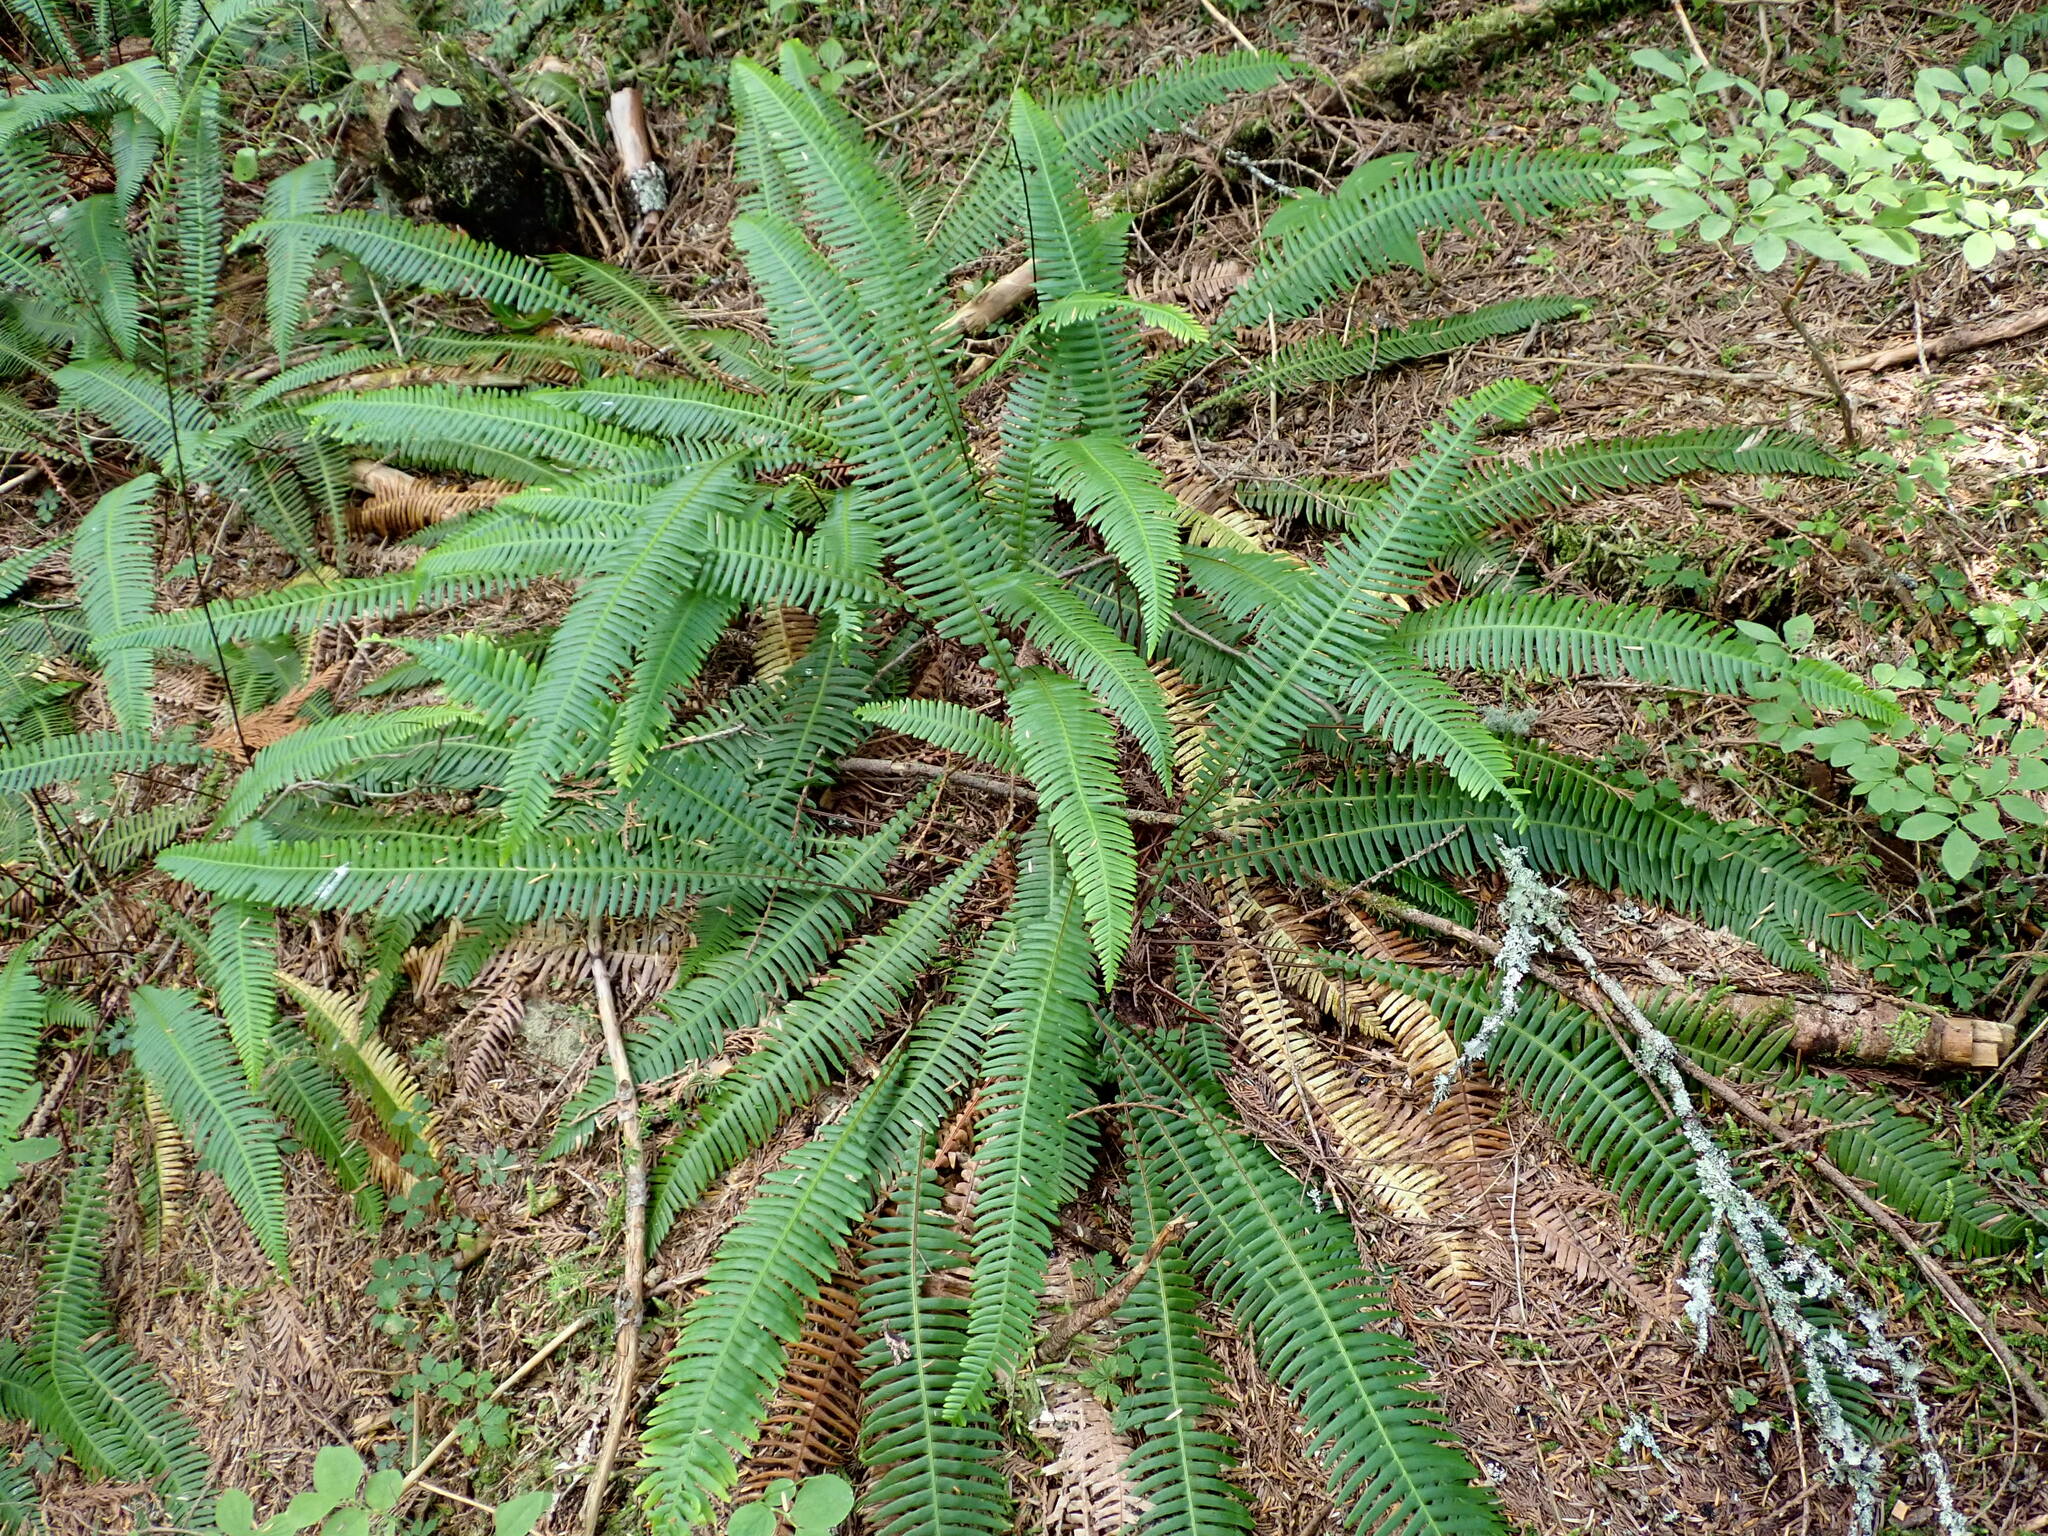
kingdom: Plantae
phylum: Tracheophyta
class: Polypodiopsida
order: Polypodiales
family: Blechnaceae
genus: Struthiopteris
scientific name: Struthiopteris spicant
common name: Deer fern
